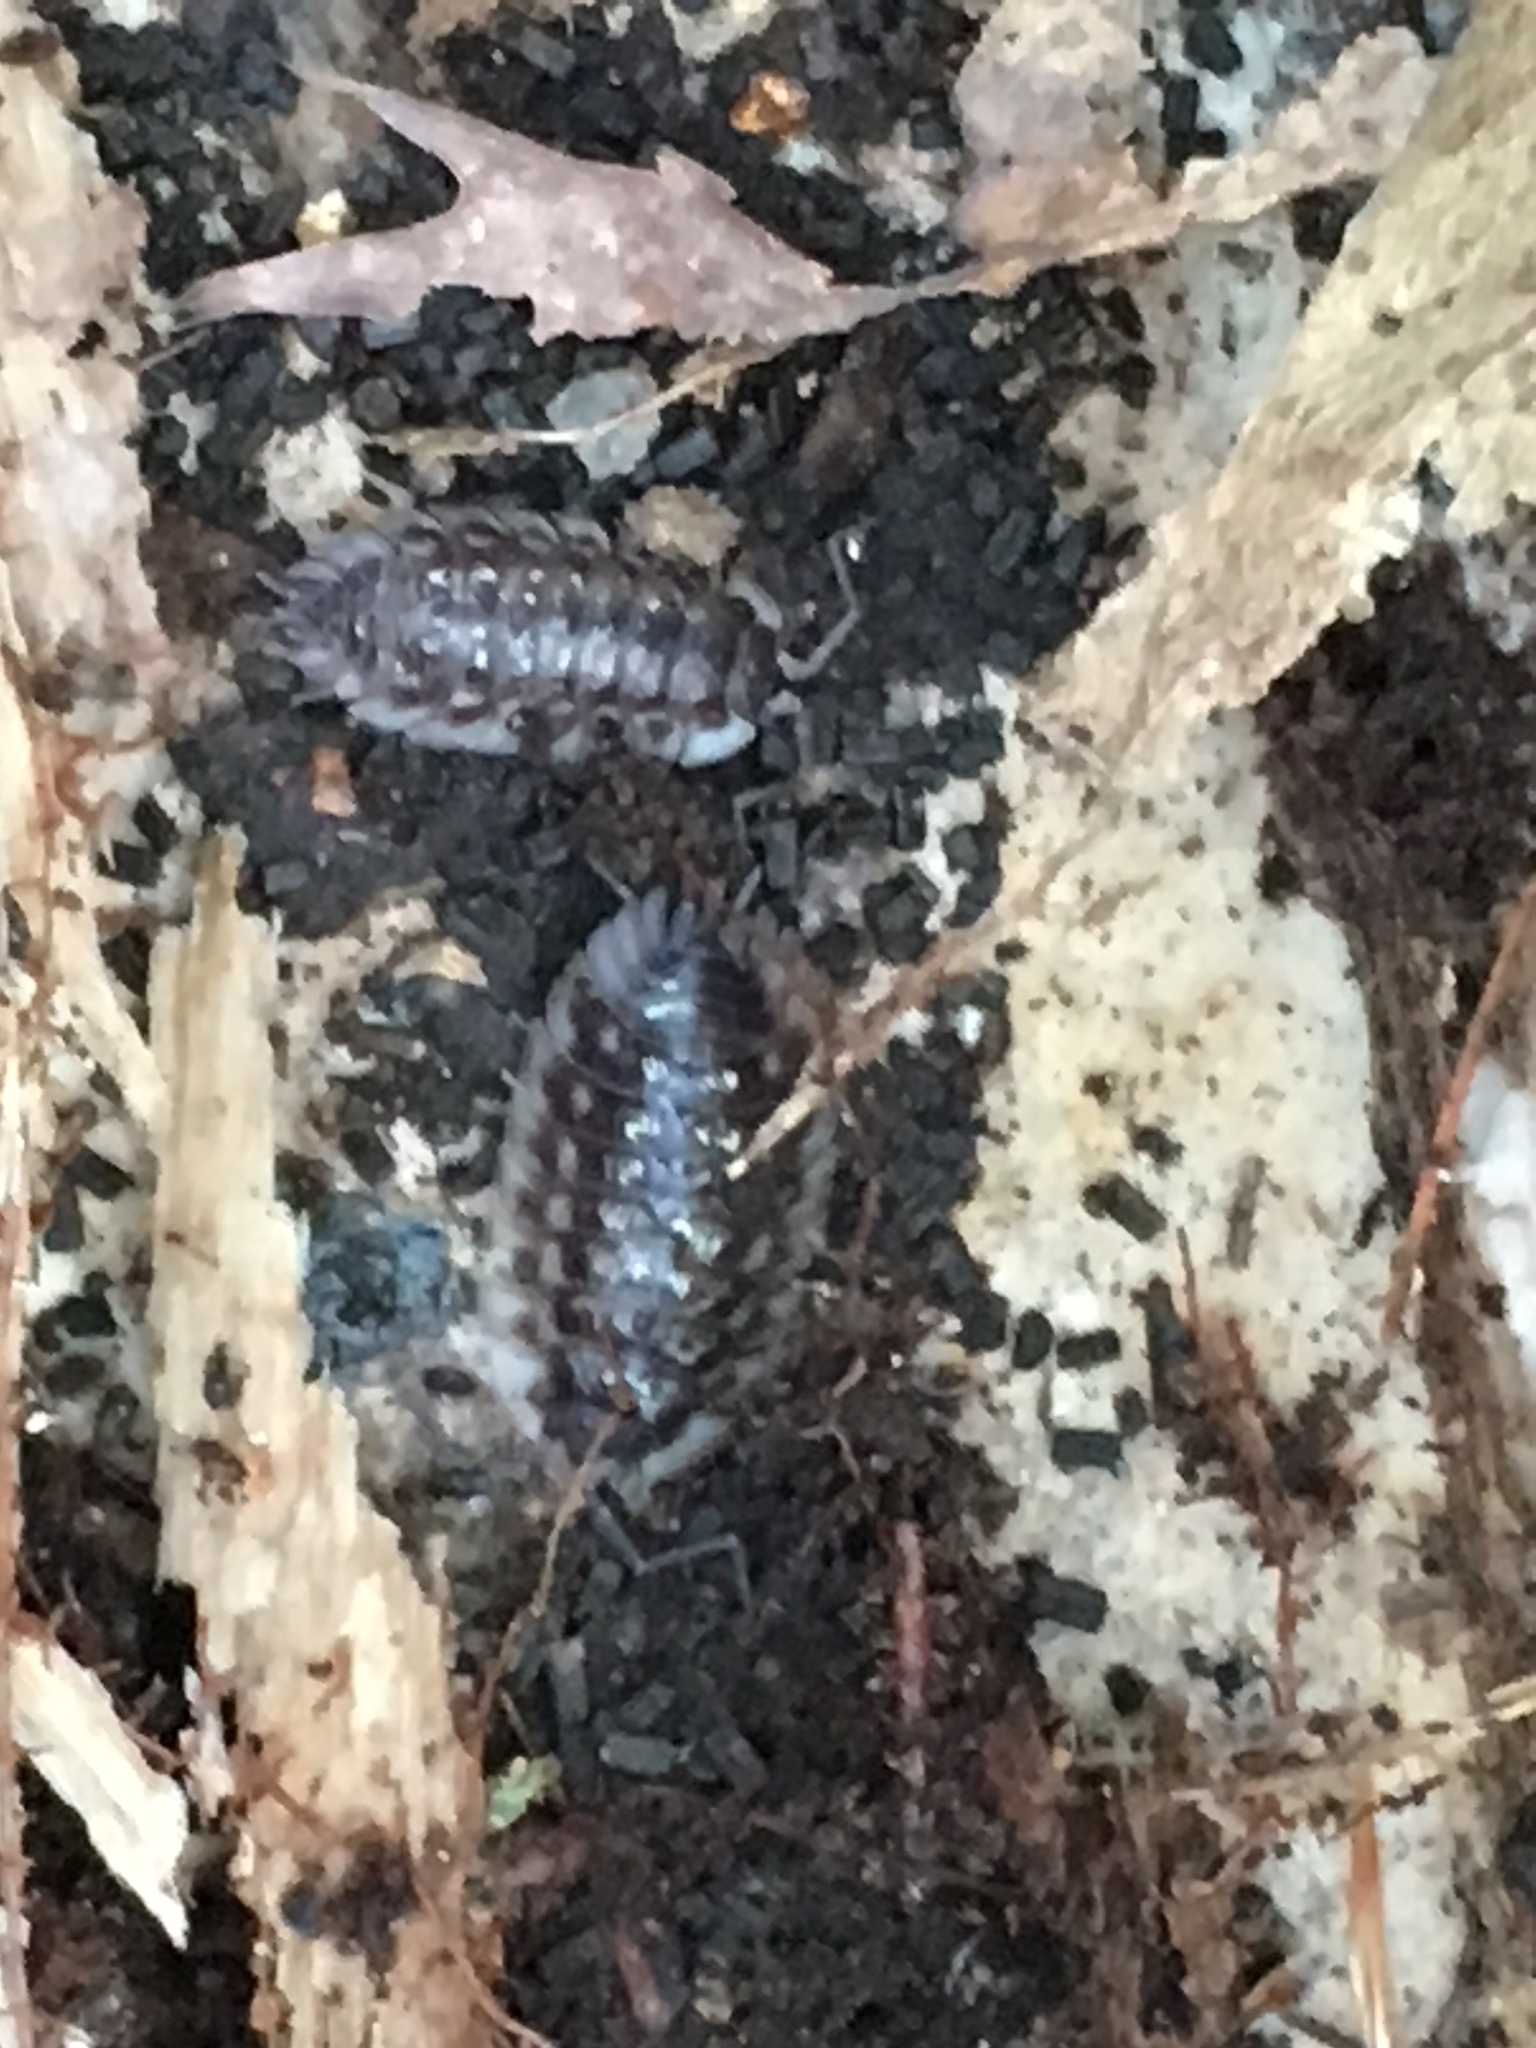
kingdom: Animalia
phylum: Arthropoda
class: Malacostraca
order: Isopoda
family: Oniscidae
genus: Oniscus
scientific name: Oniscus asellus
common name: Common shiny woodlouse
